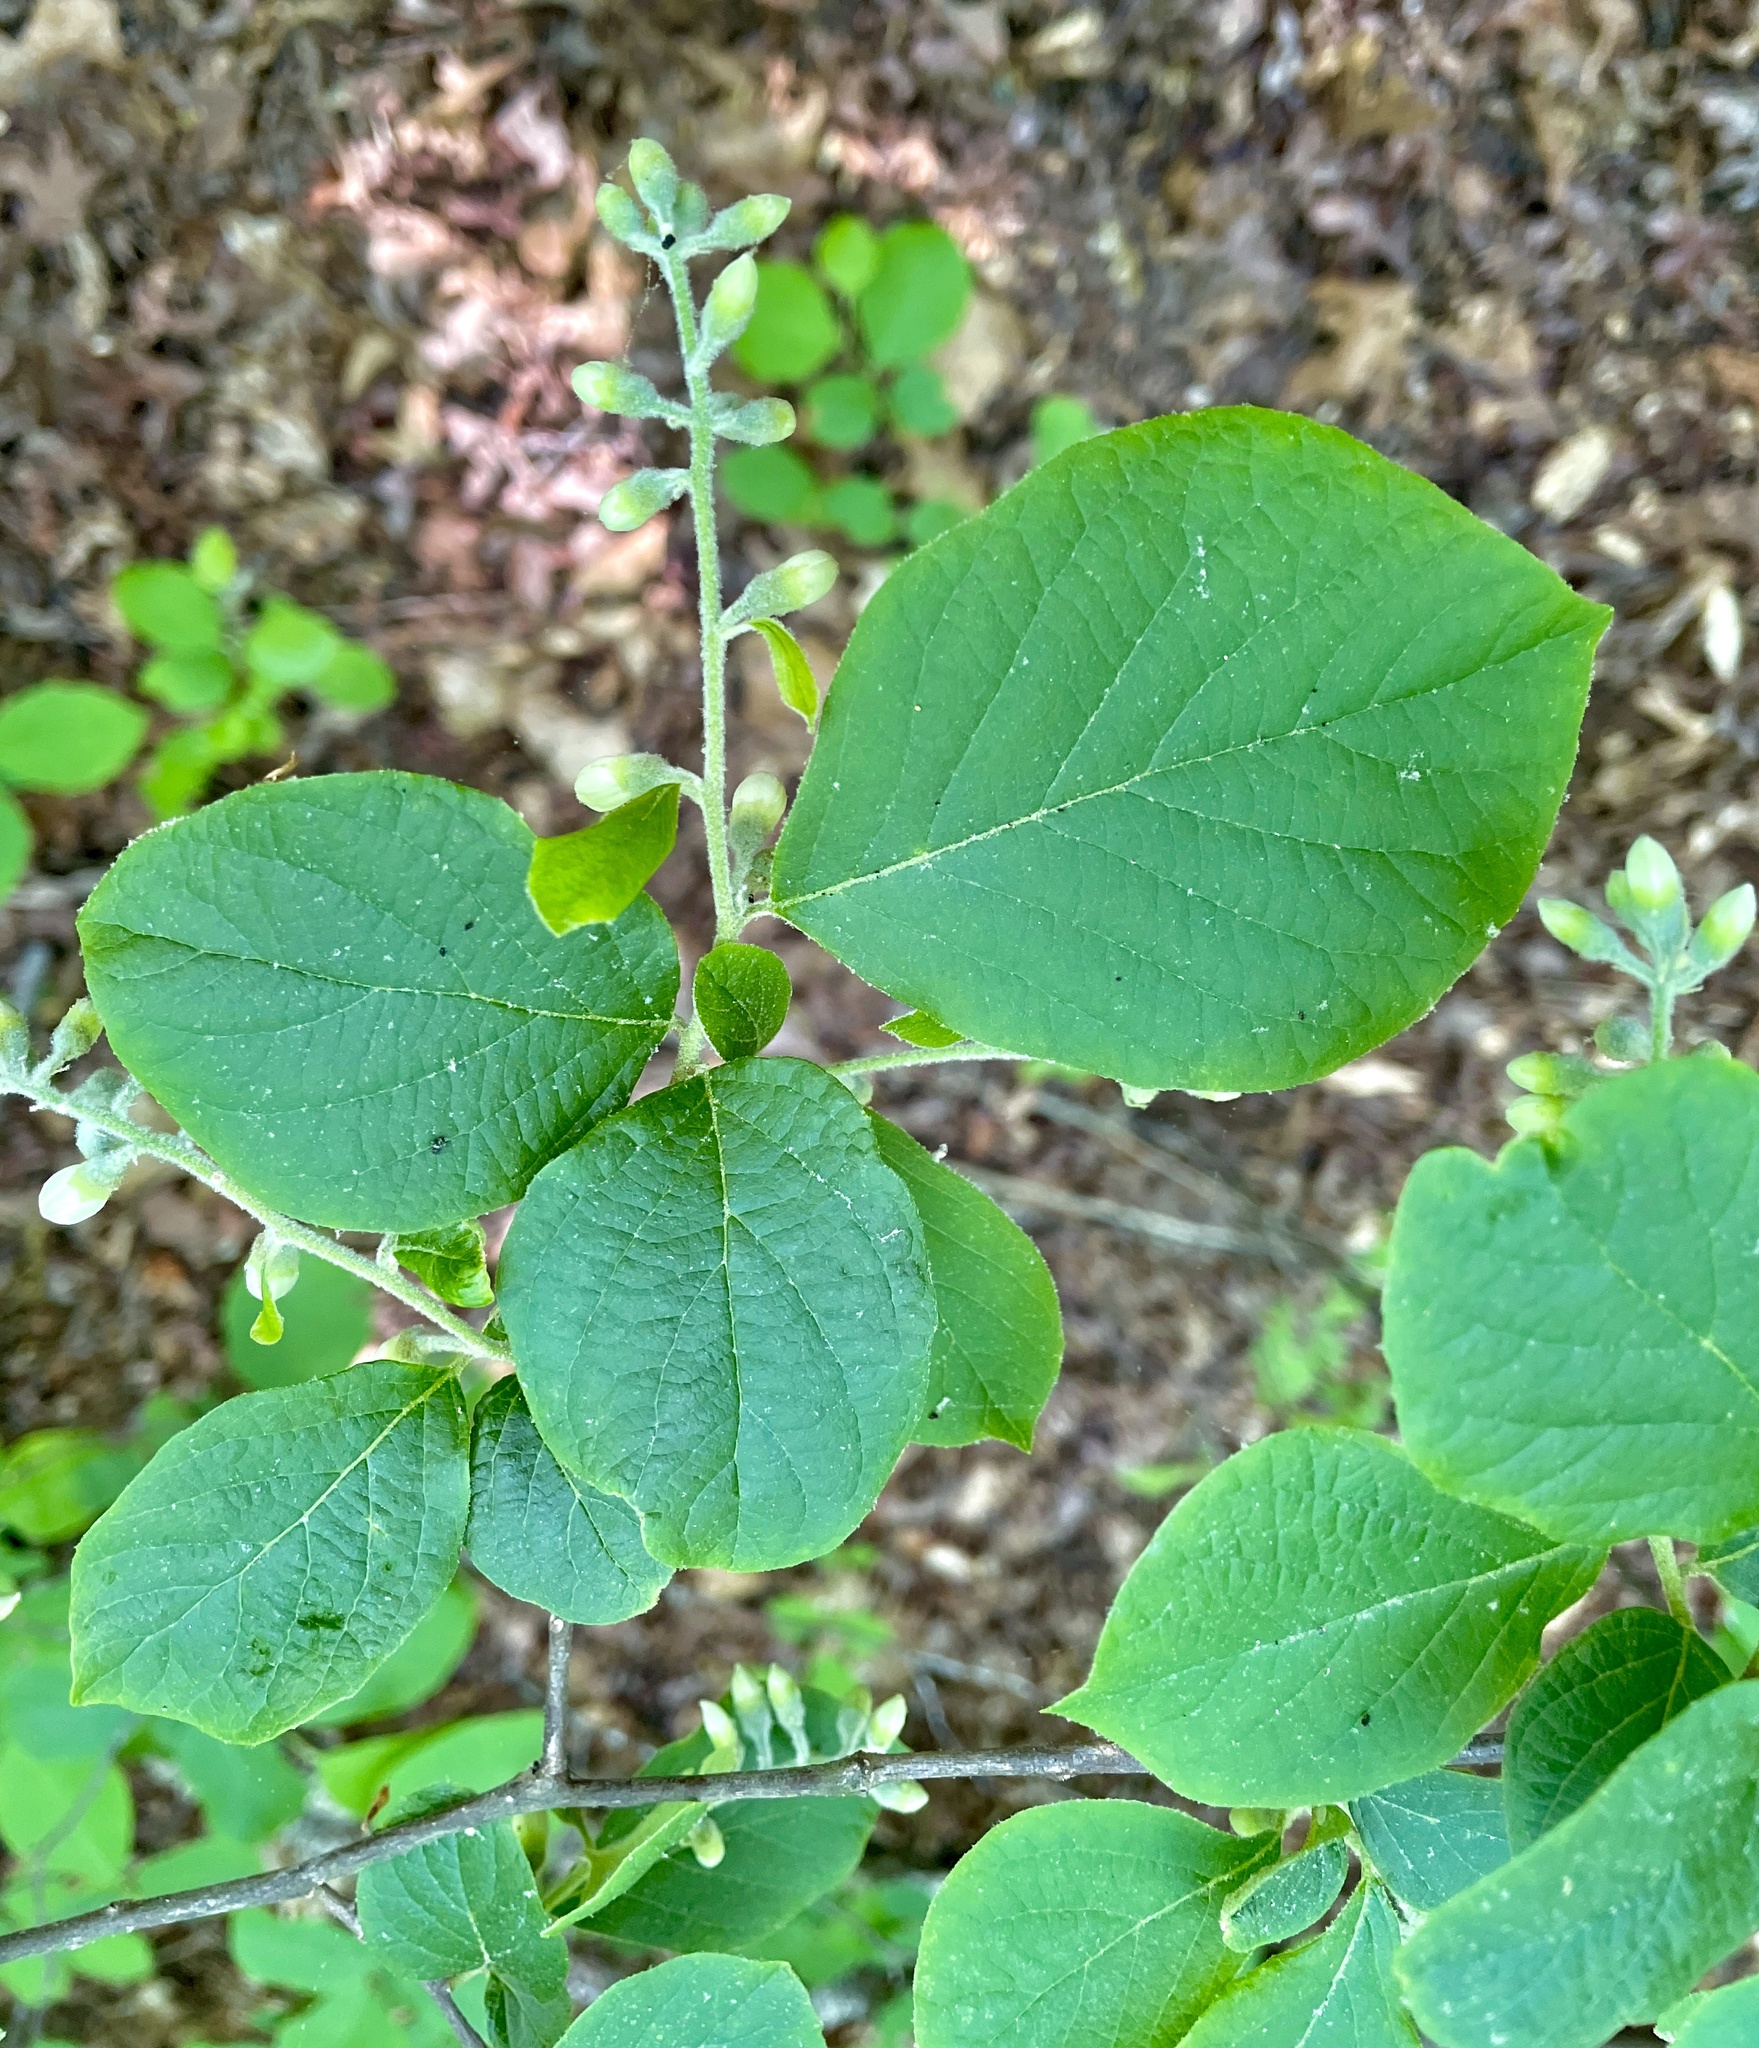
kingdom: Plantae
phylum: Tracheophyta
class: Magnoliopsida
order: Ericales
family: Styracaceae
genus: Styrax
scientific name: Styrax grandifolius
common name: Big-leaf snowbell
